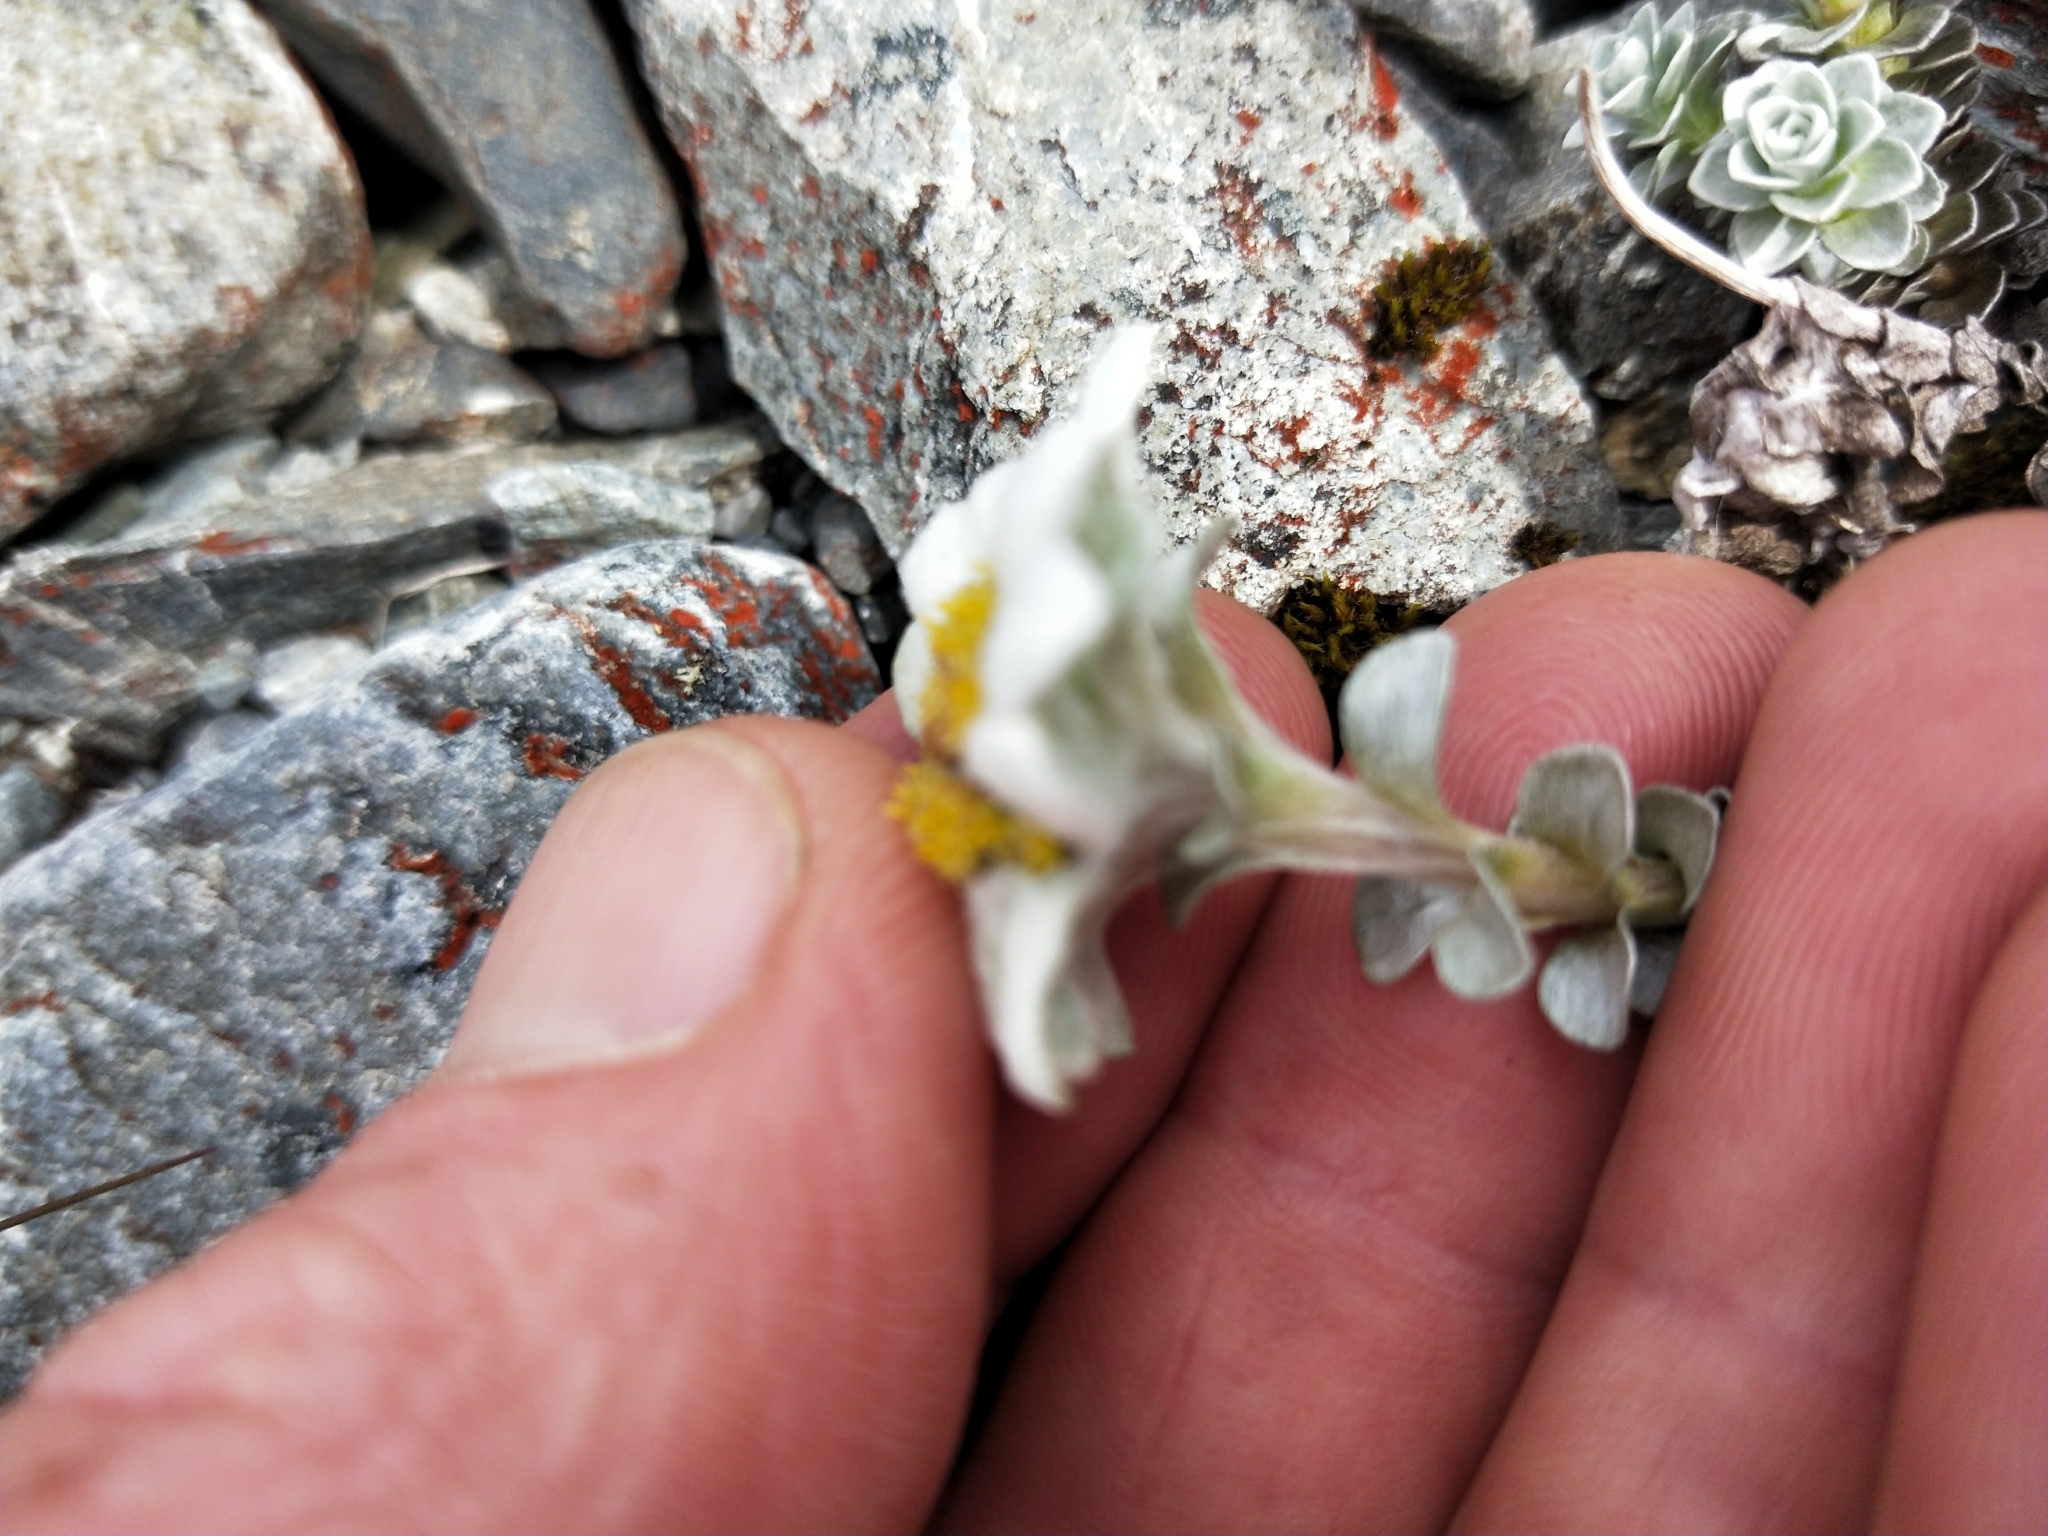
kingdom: Plantae
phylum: Tracheophyta
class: Magnoliopsida
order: Asterales
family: Asteraceae
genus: Leucogenes
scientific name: Leucogenes grandiceps
